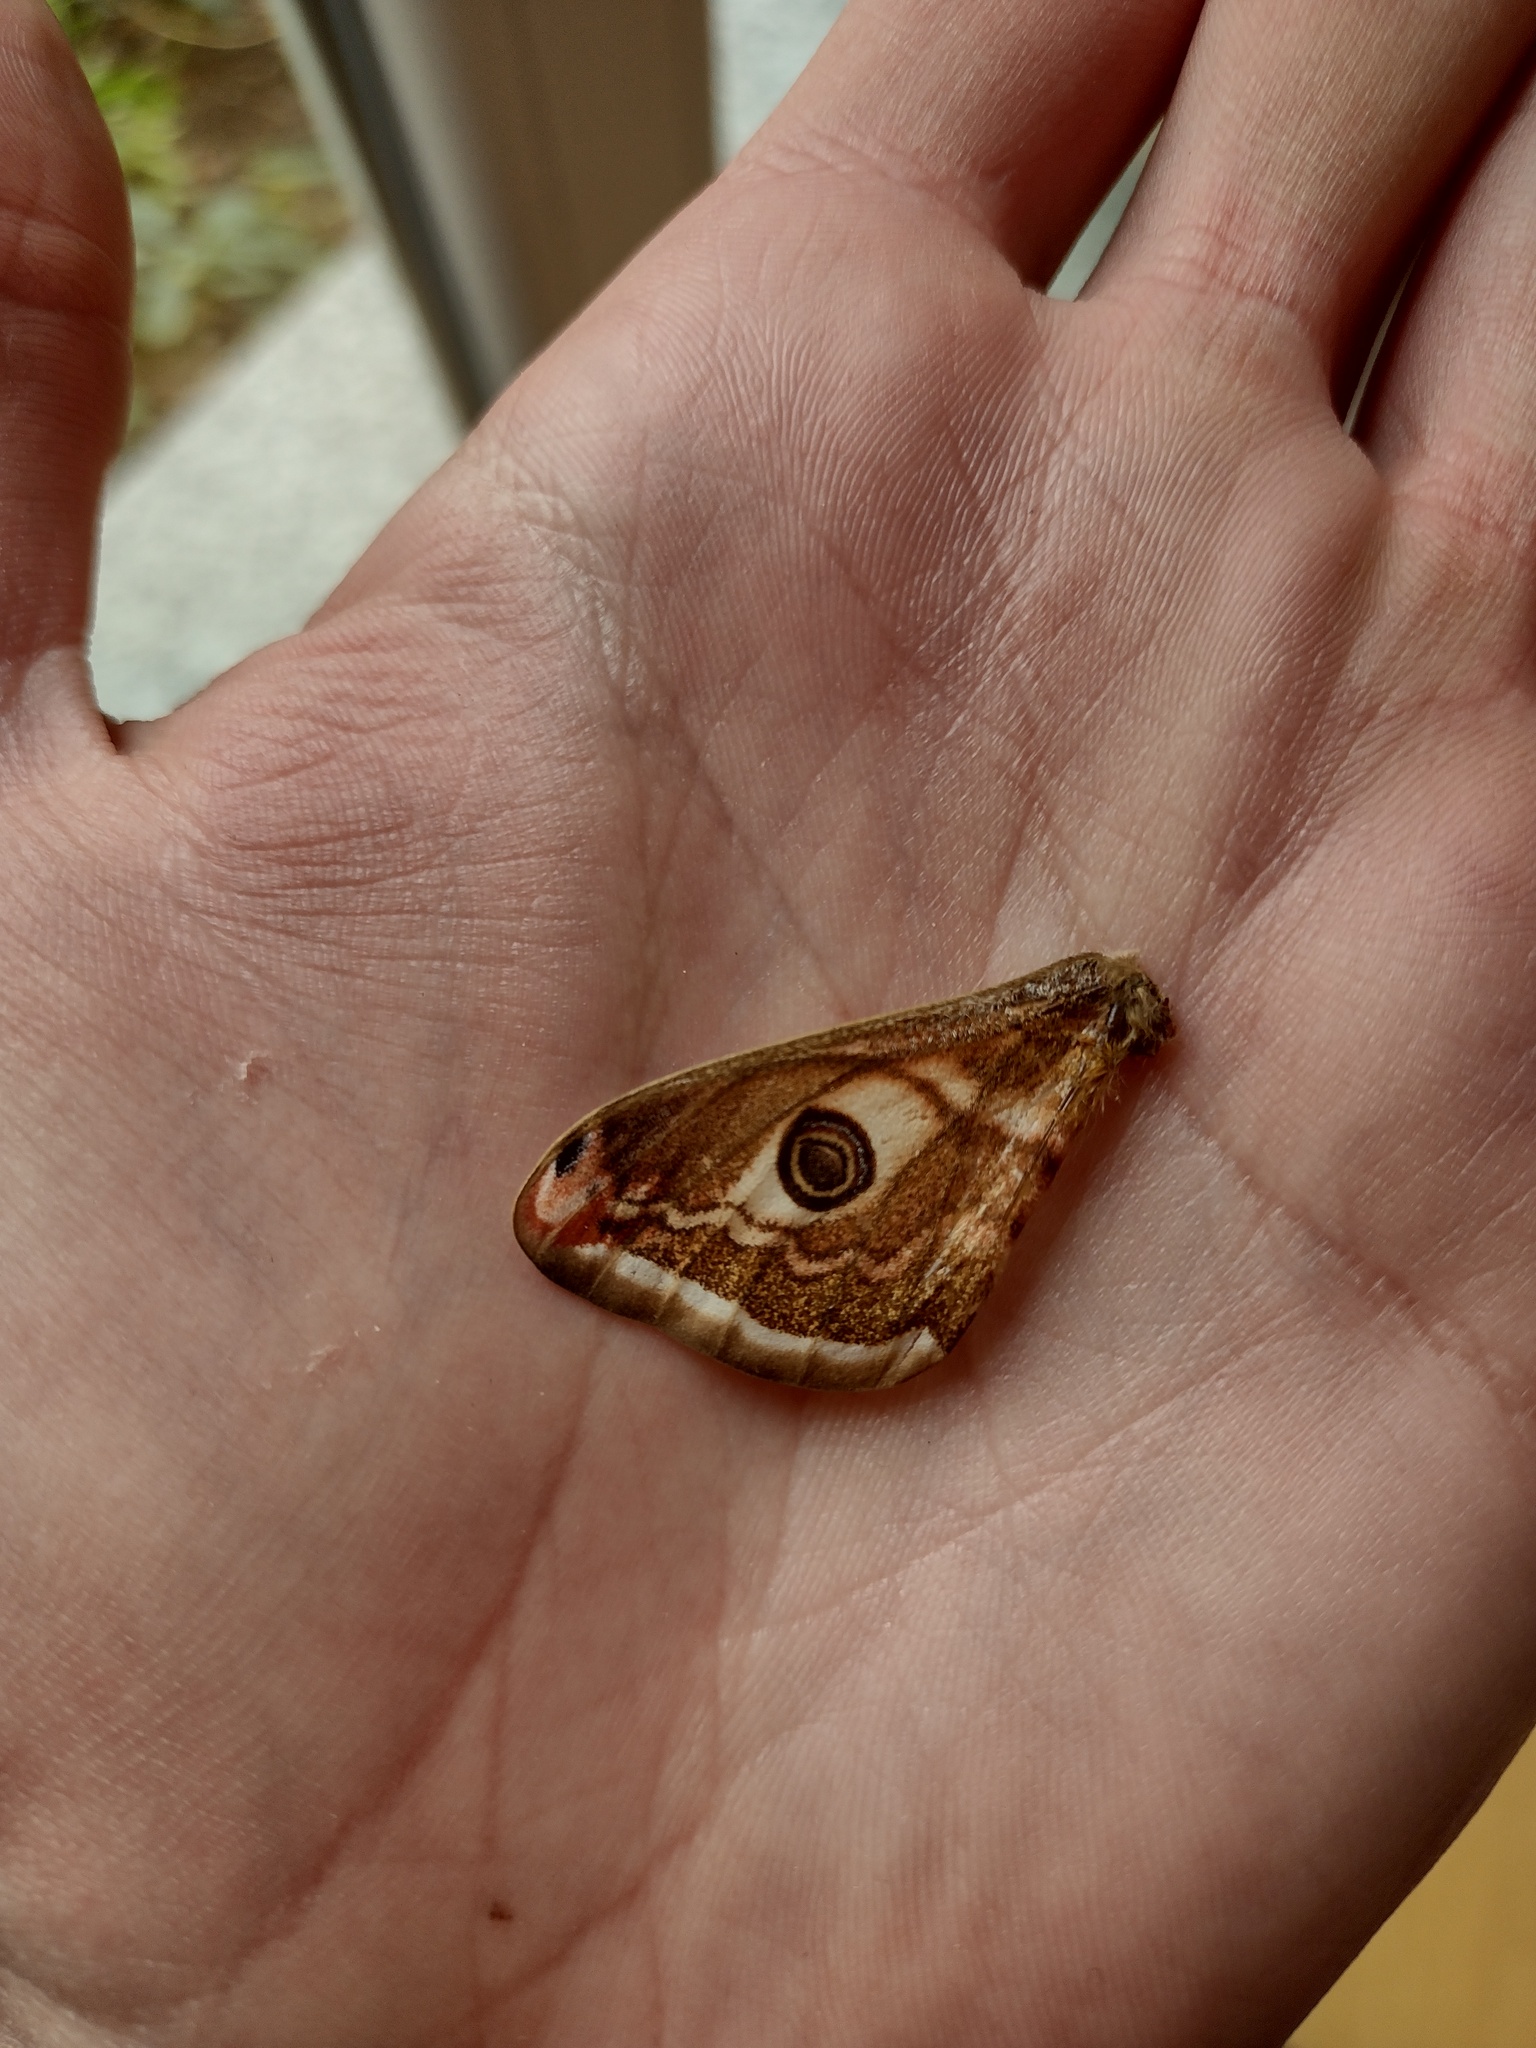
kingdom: Animalia
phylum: Arthropoda
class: Insecta
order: Lepidoptera
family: Saturniidae
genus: Saturnia
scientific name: Saturnia pavoniella
